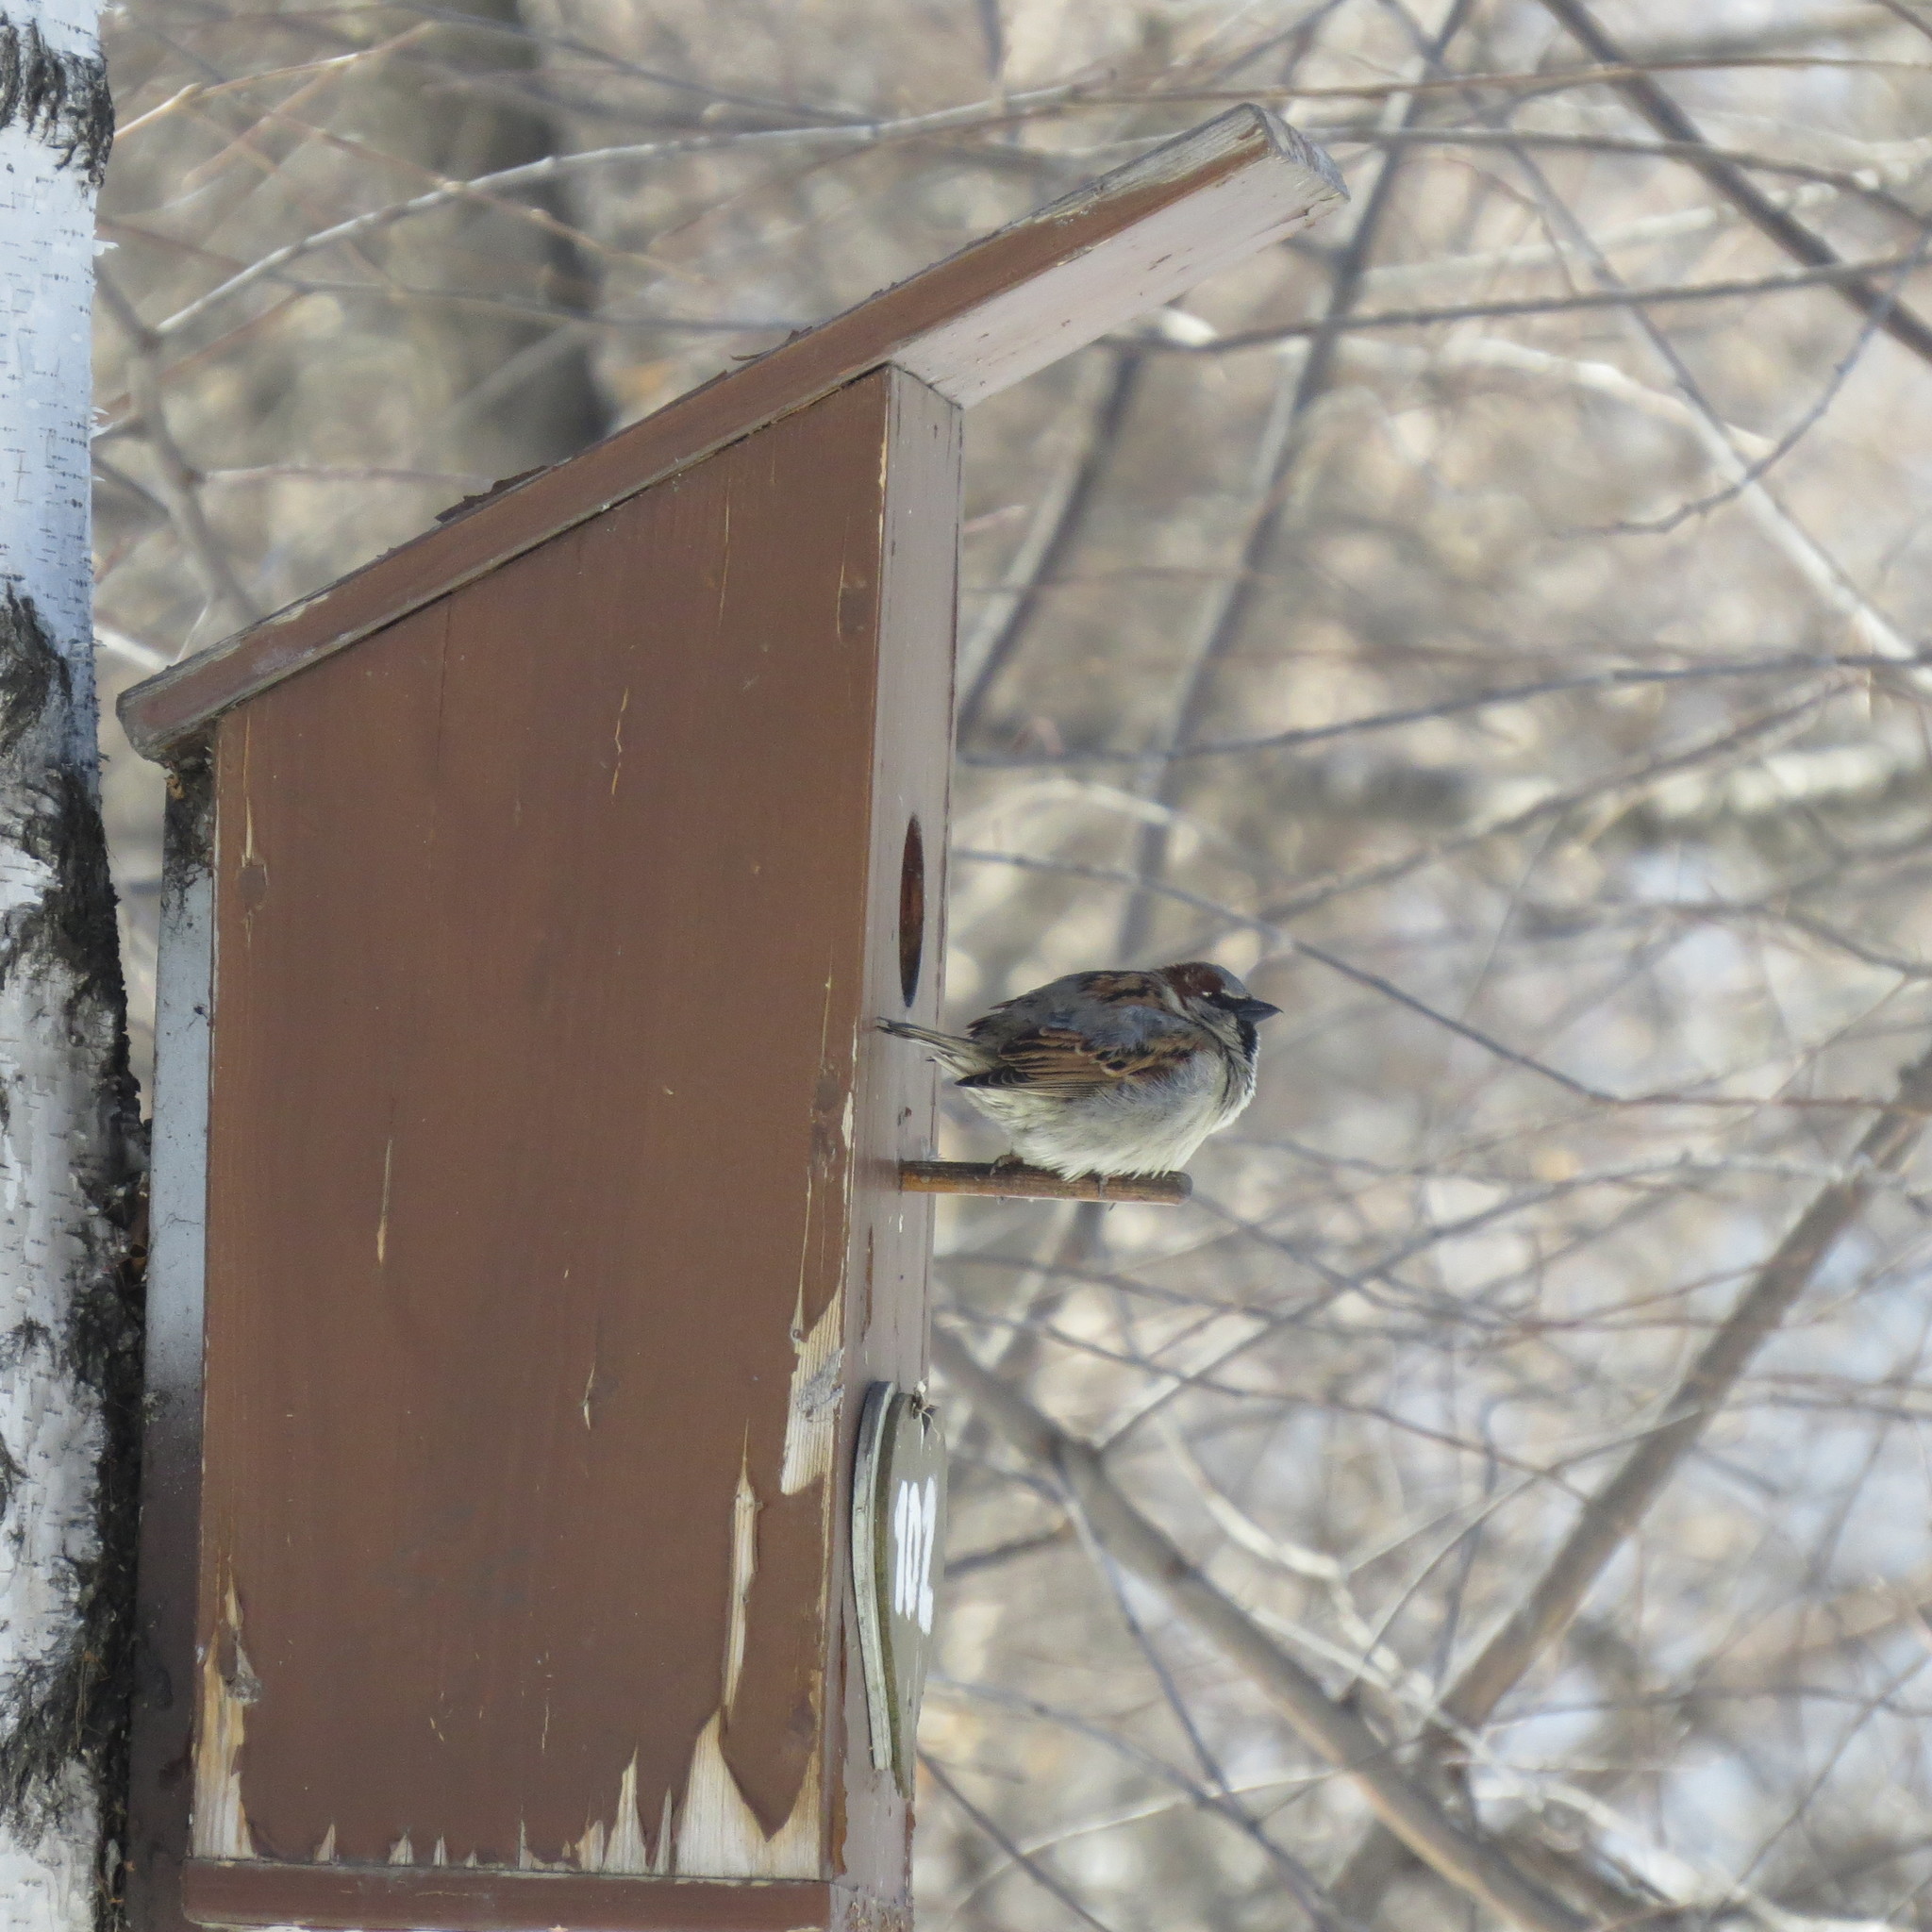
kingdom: Animalia
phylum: Chordata
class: Aves
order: Passeriformes
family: Passeridae
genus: Passer
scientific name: Passer domesticus
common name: House sparrow
